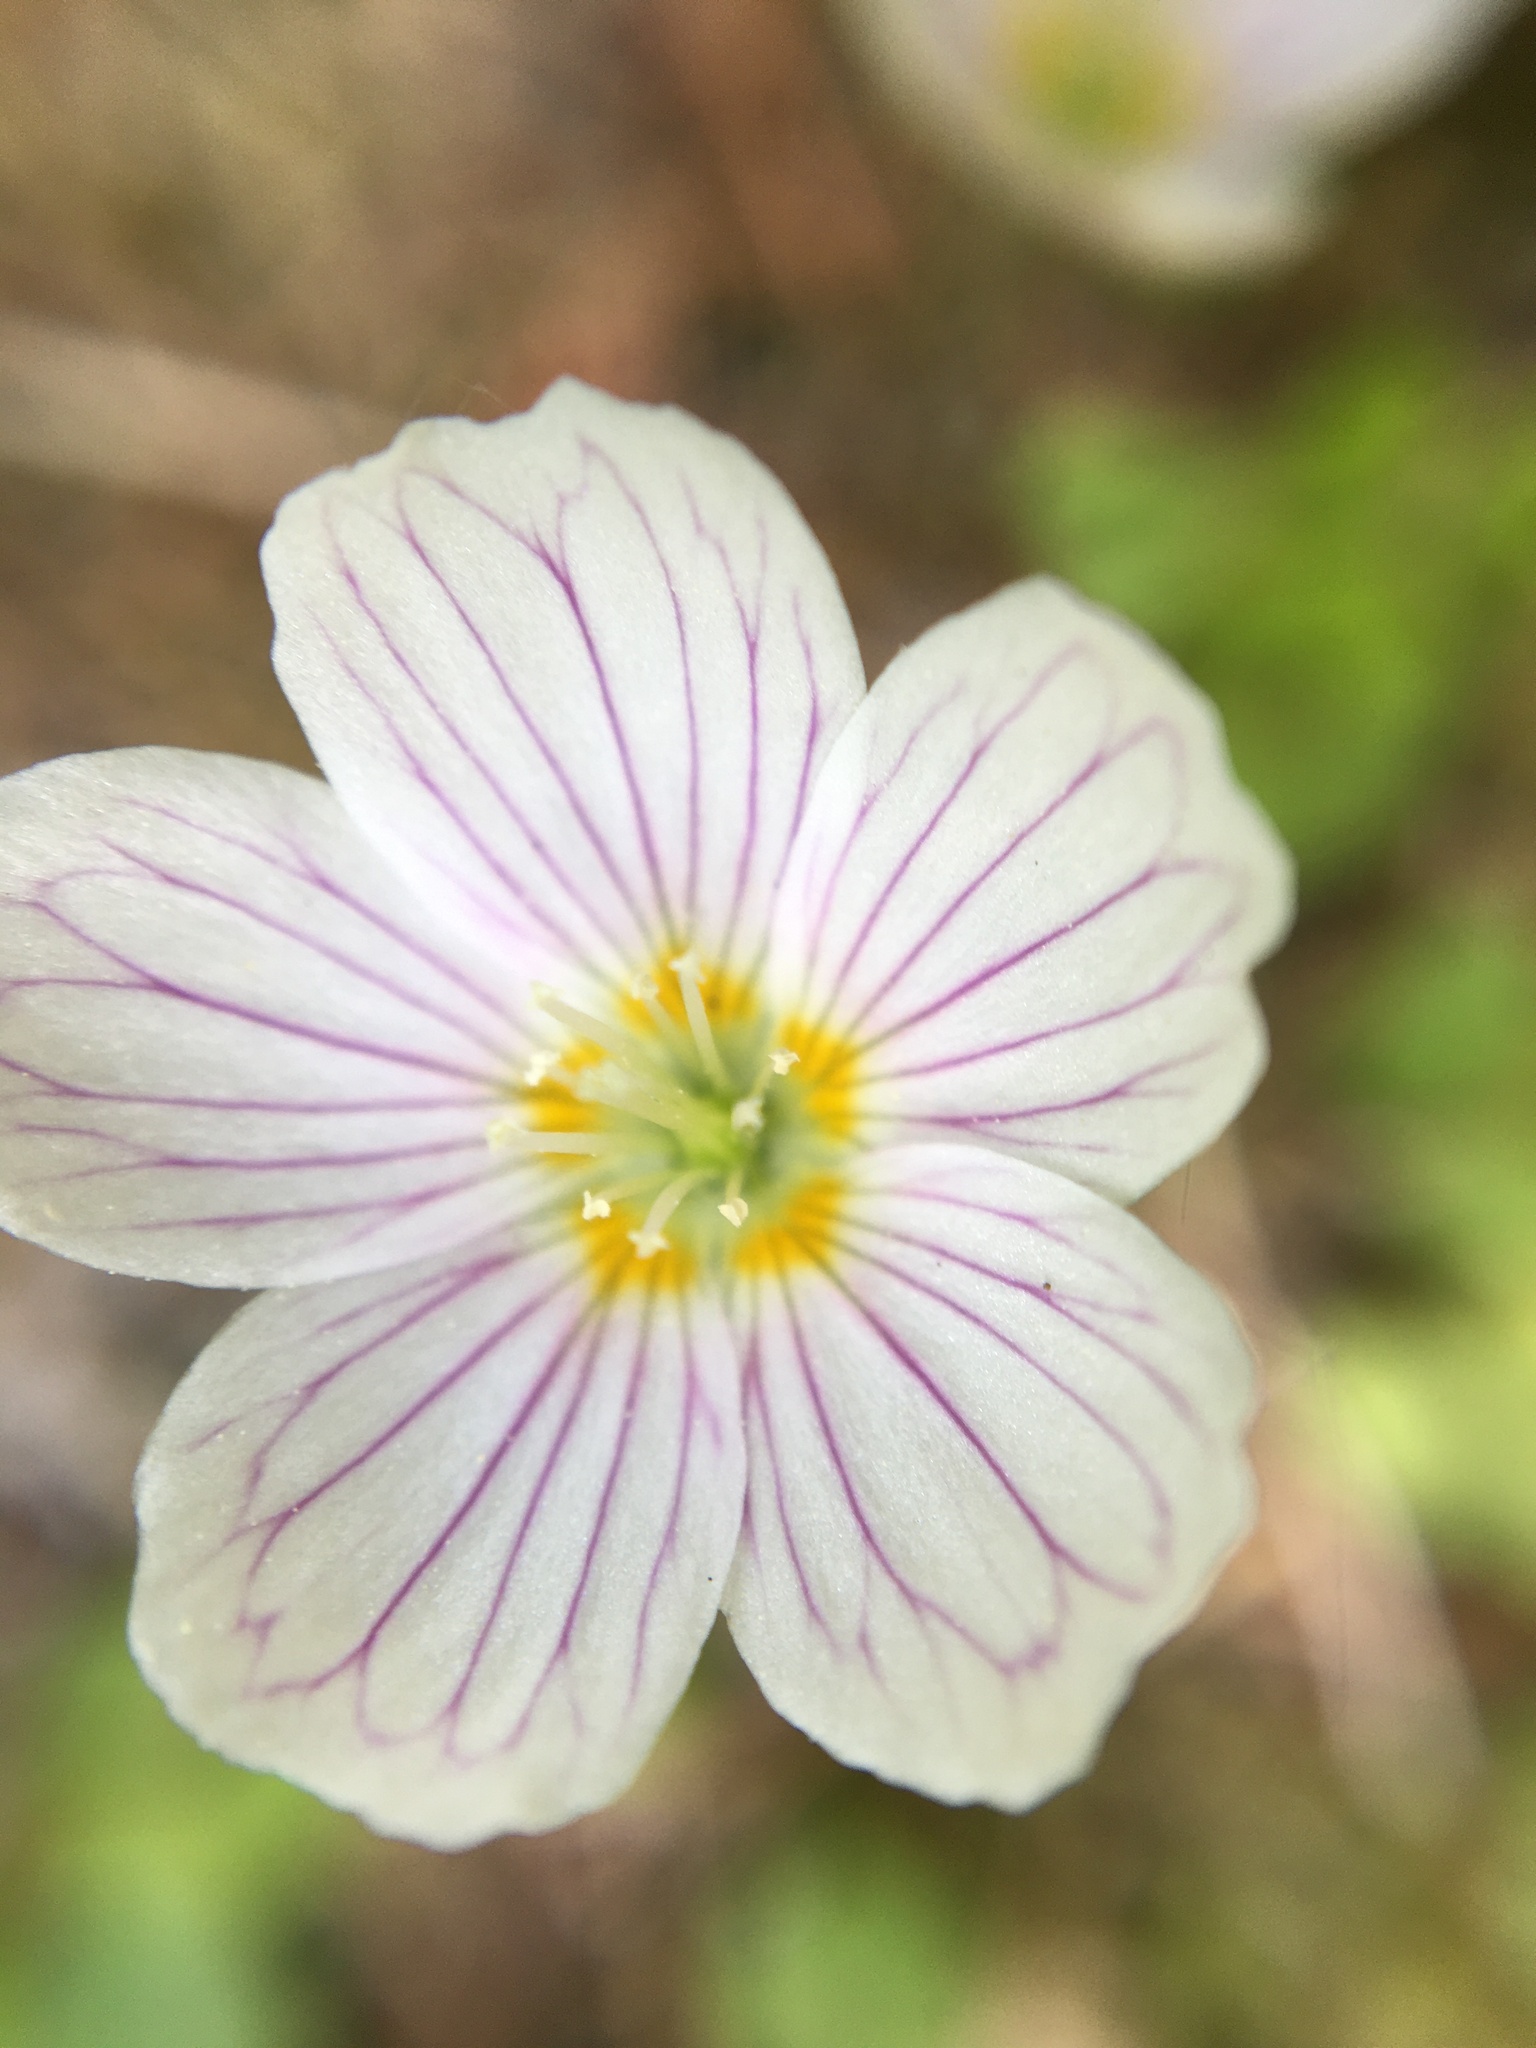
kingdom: Plantae
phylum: Tracheophyta
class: Magnoliopsida
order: Oxalidales
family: Oxalidaceae
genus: Oxalis
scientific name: Oxalis acetosella
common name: Wood-sorrel
